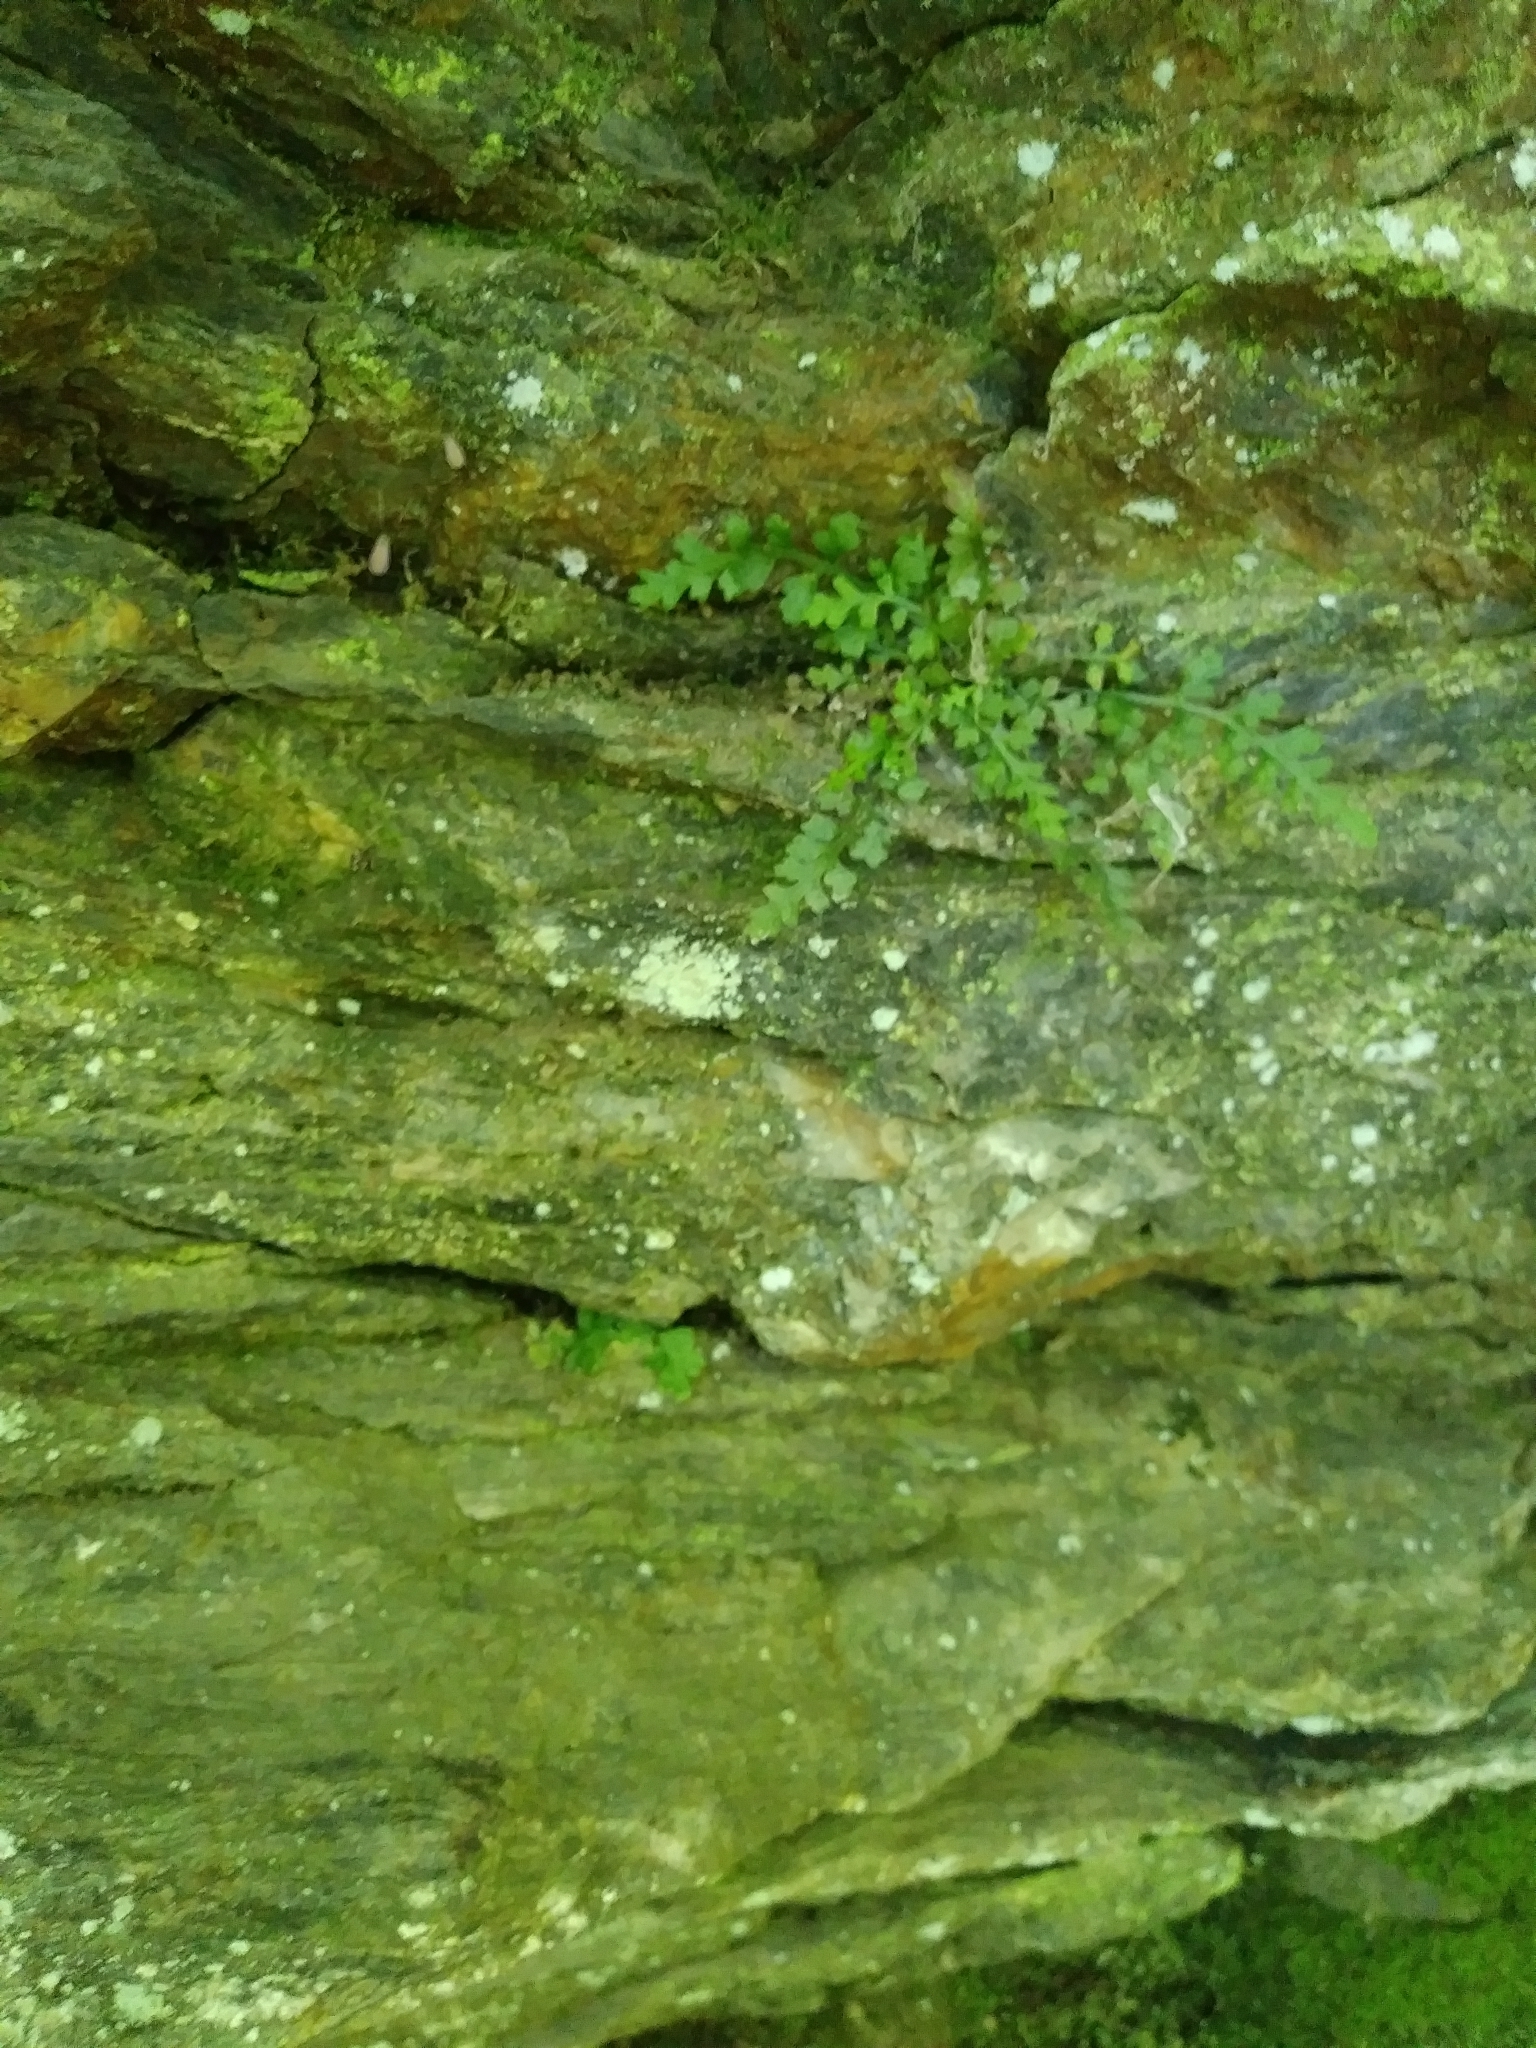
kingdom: Plantae
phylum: Tracheophyta
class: Polypodiopsida
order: Polypodiales
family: Aspleniaceae
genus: Asplenium
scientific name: Asplenium montanum
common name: Mountain spleenwort
